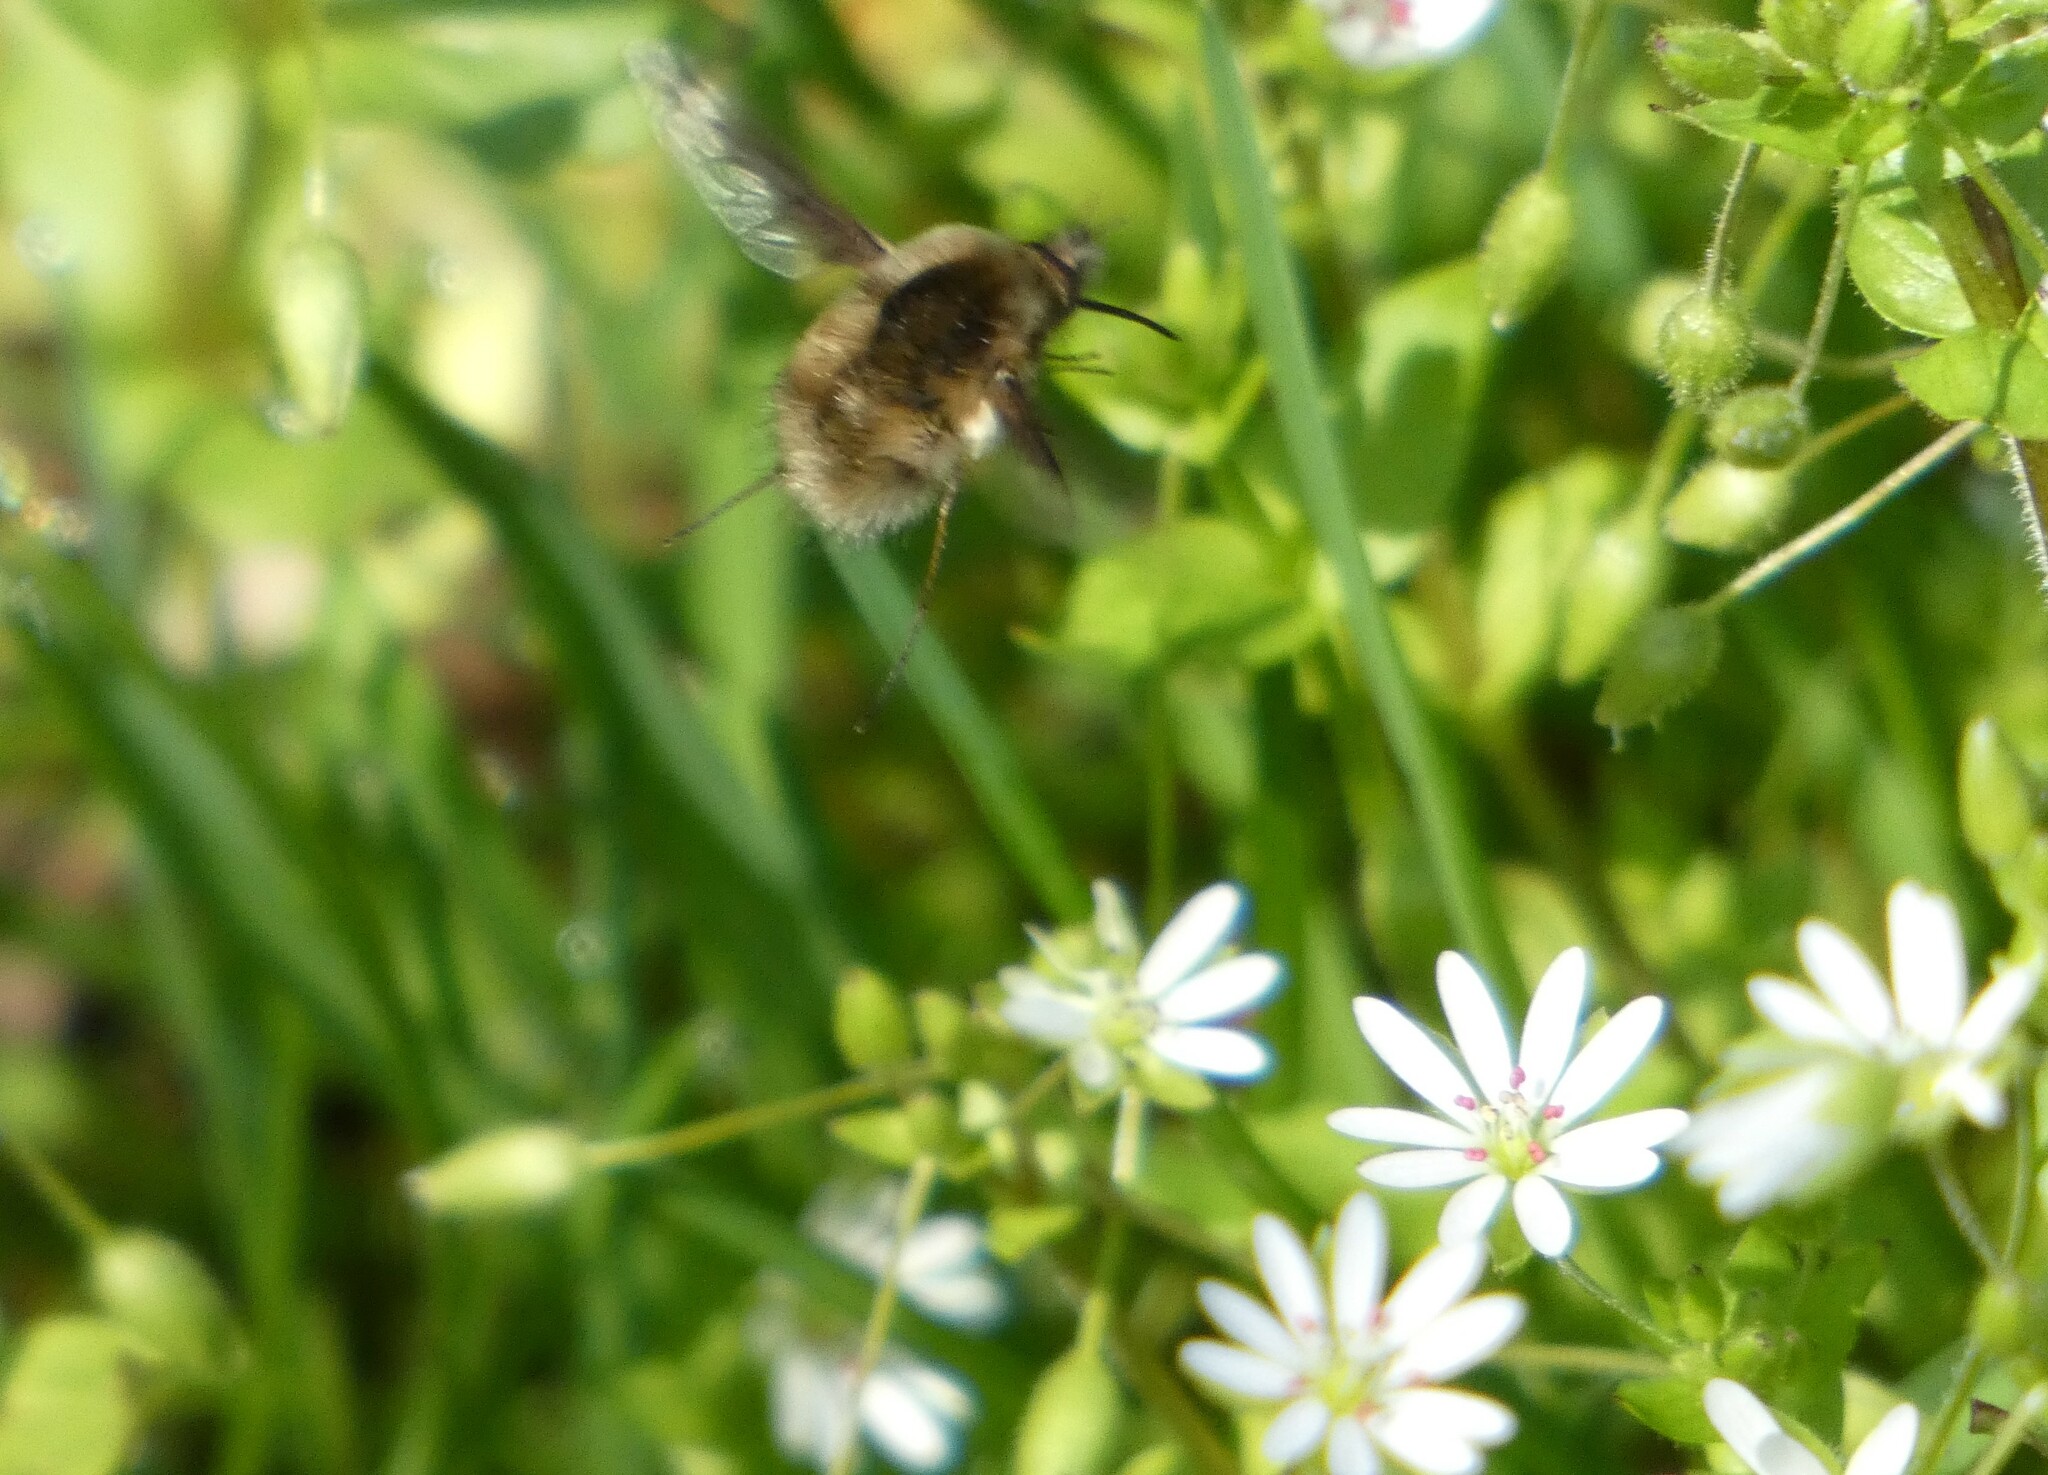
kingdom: Animalia
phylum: Arthropoda
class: Insecta
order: Diptera
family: Bombyliidae
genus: Bombylius
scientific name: Bombylius major
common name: Bee fly
